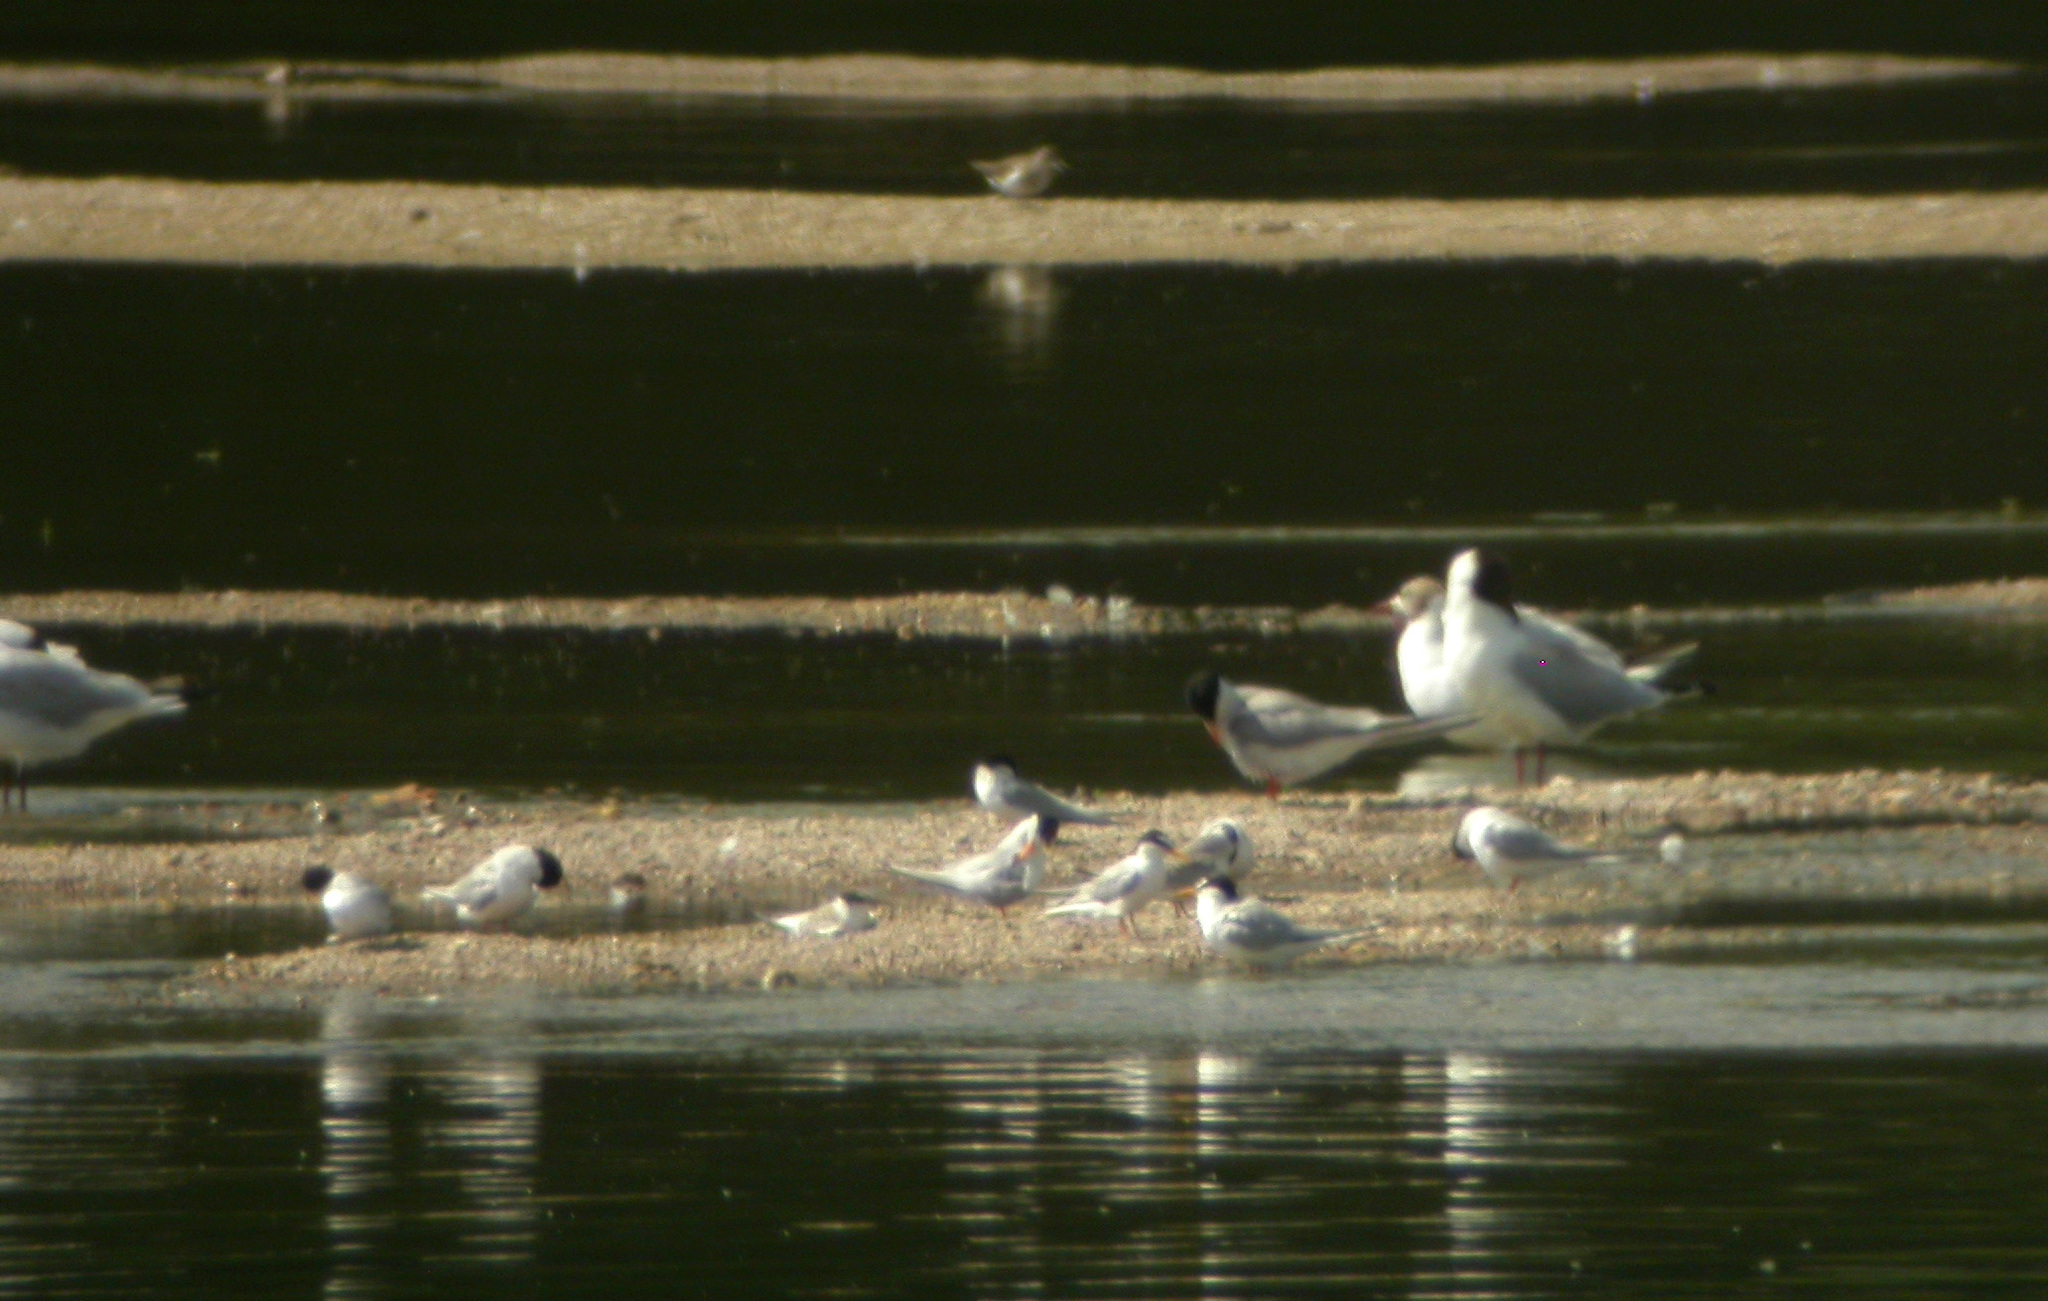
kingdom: Animalia
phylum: Chordata
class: Aves
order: Charadriiformes
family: Laridae
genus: Sternula
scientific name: Sternula albifrons
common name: Little tern
